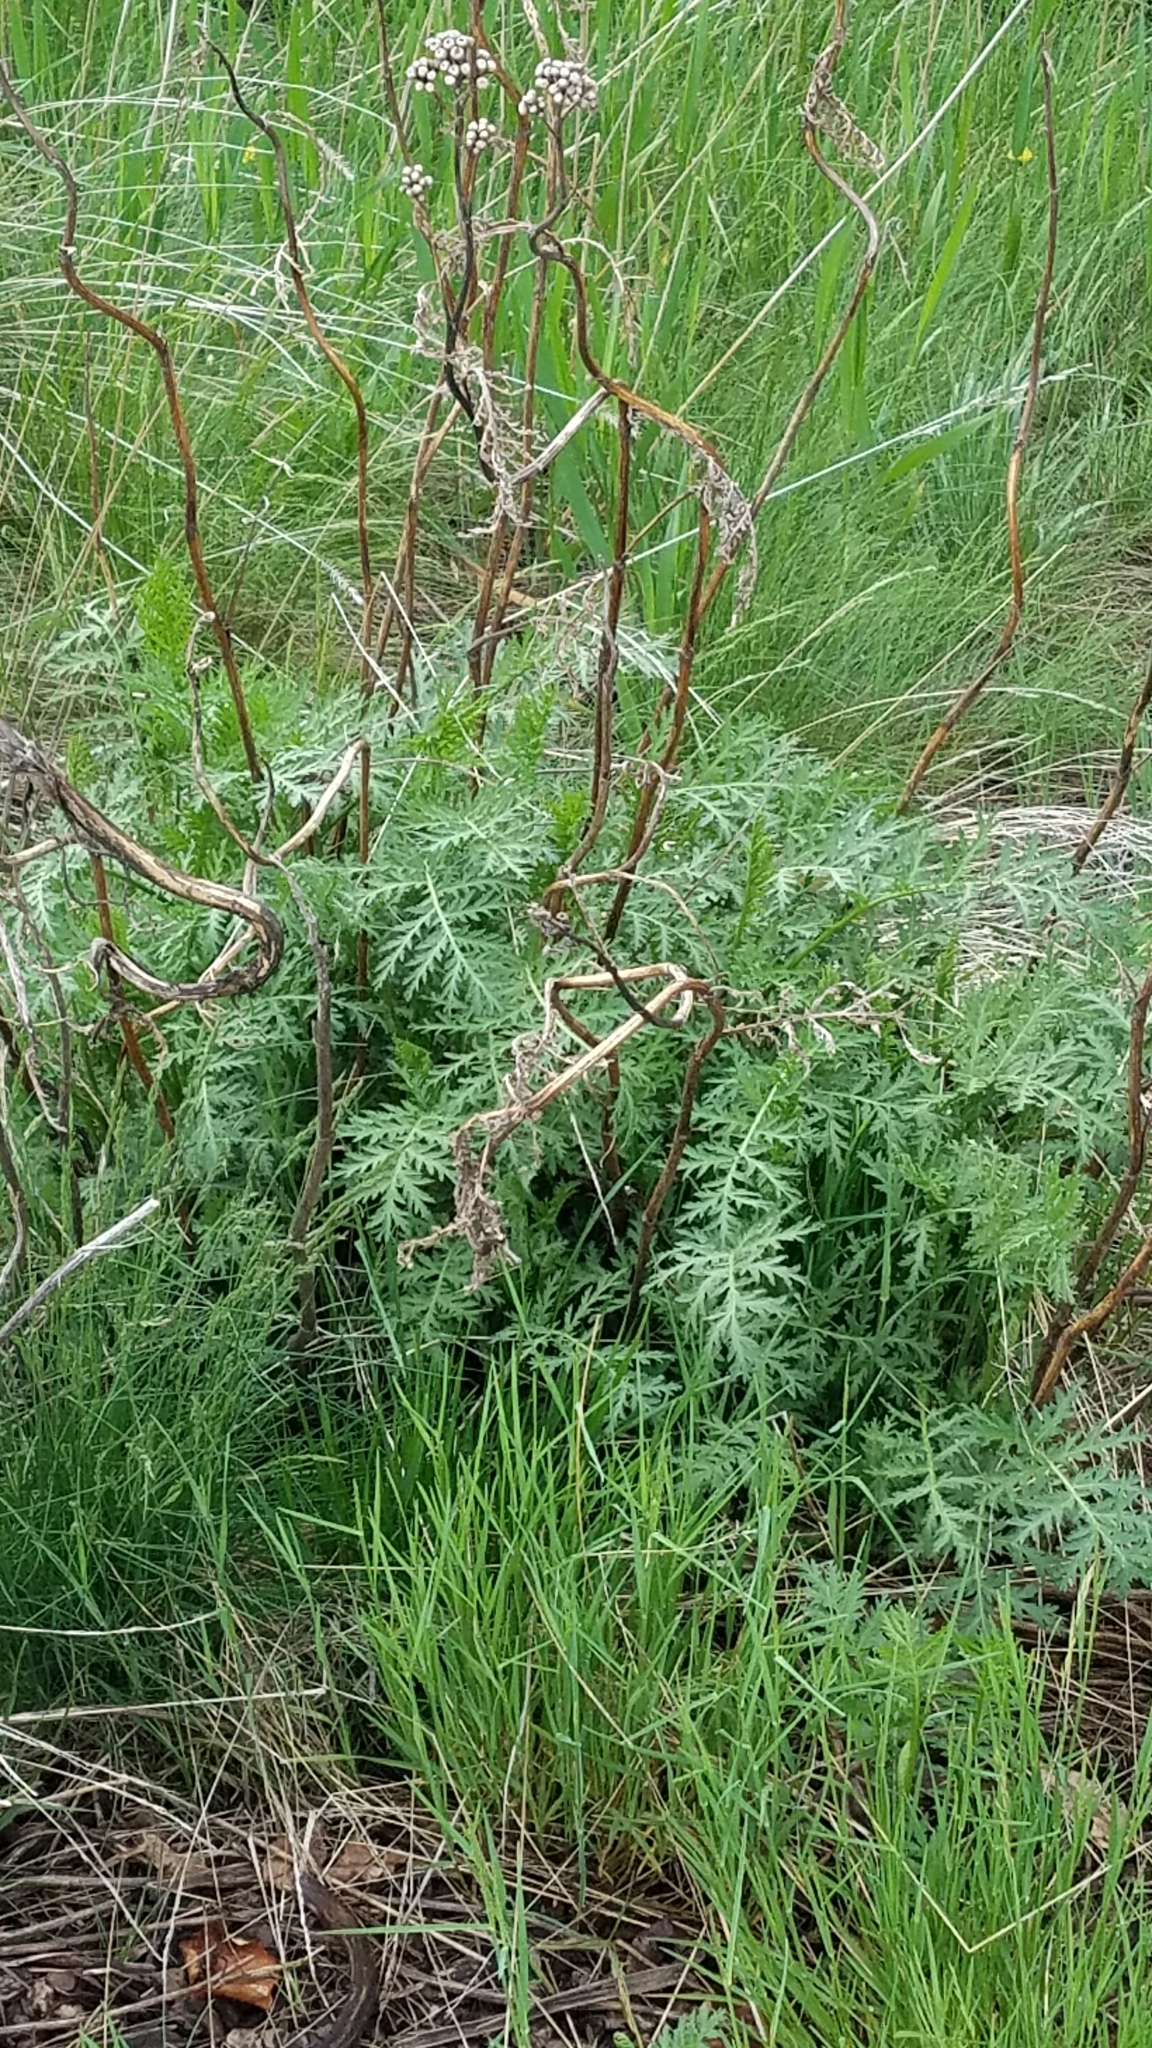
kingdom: Plantae
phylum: Tracheophyta
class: Magnoliopsida
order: Asterales
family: Asteraceae
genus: Tanacetum
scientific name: Tanacetum vulgare
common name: Common tansy
